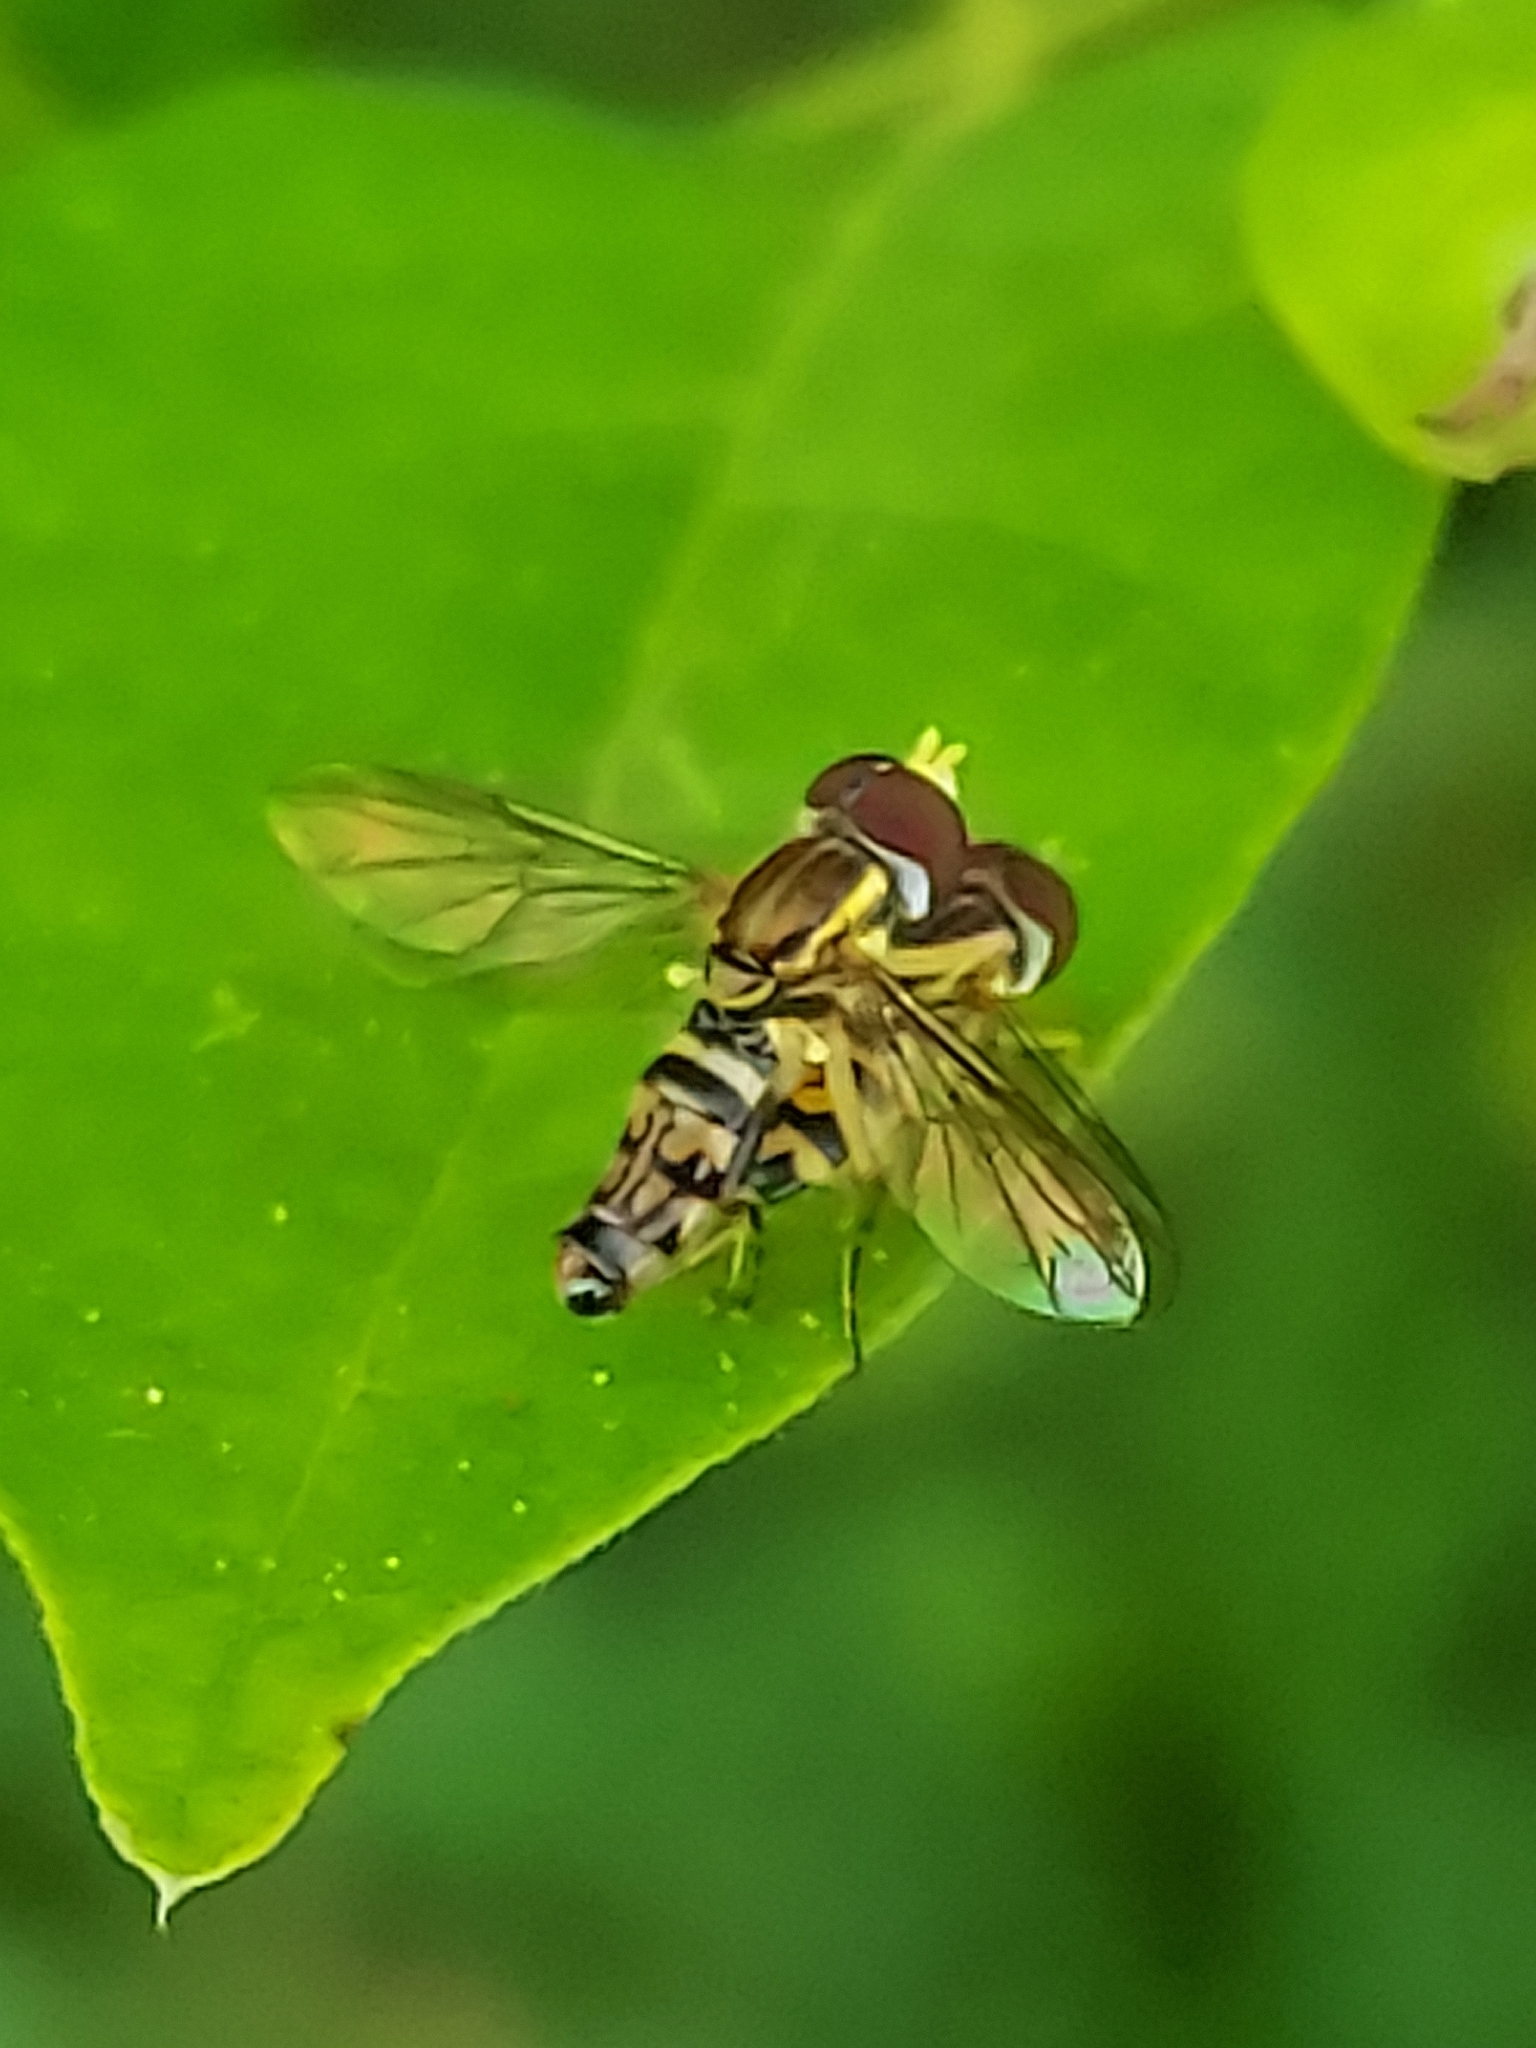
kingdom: Animalia
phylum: Arthropoda
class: Insecta
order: Diptera
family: Syrphidae
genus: Toxomerus
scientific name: Toxomerus geminatus
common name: Eastern calligrapher
